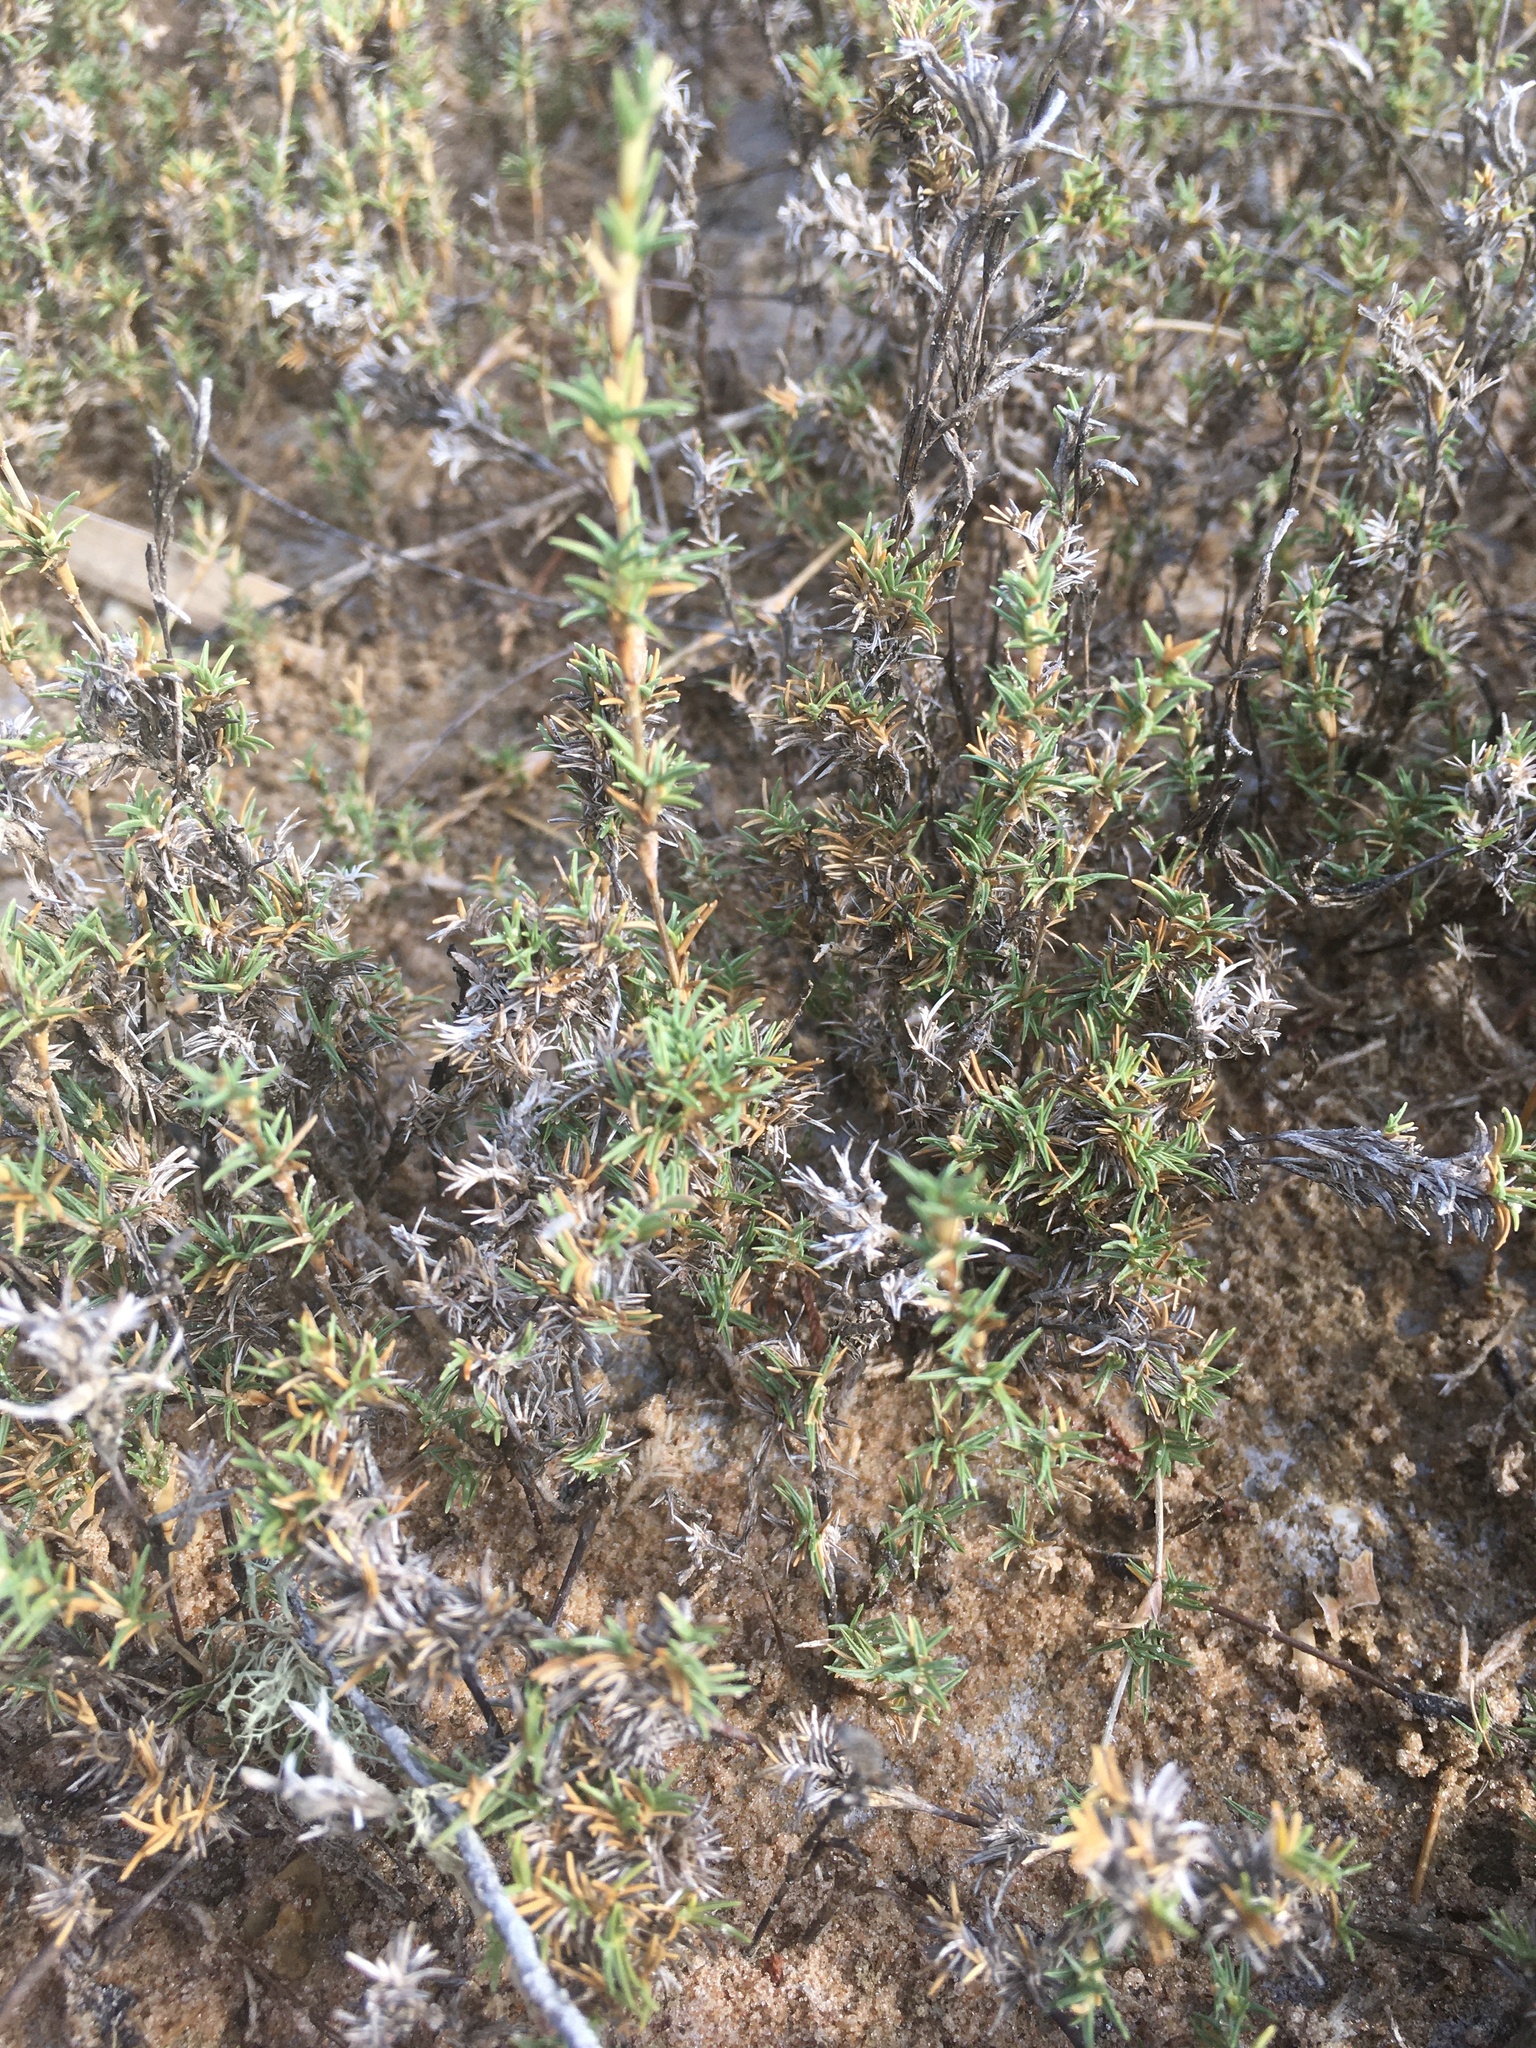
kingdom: Plantae
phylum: Tracheophyta
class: Liliopsida
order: Poales
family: Poaceae
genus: Distichlis
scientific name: Distichlis littoralis
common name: Shore grass
